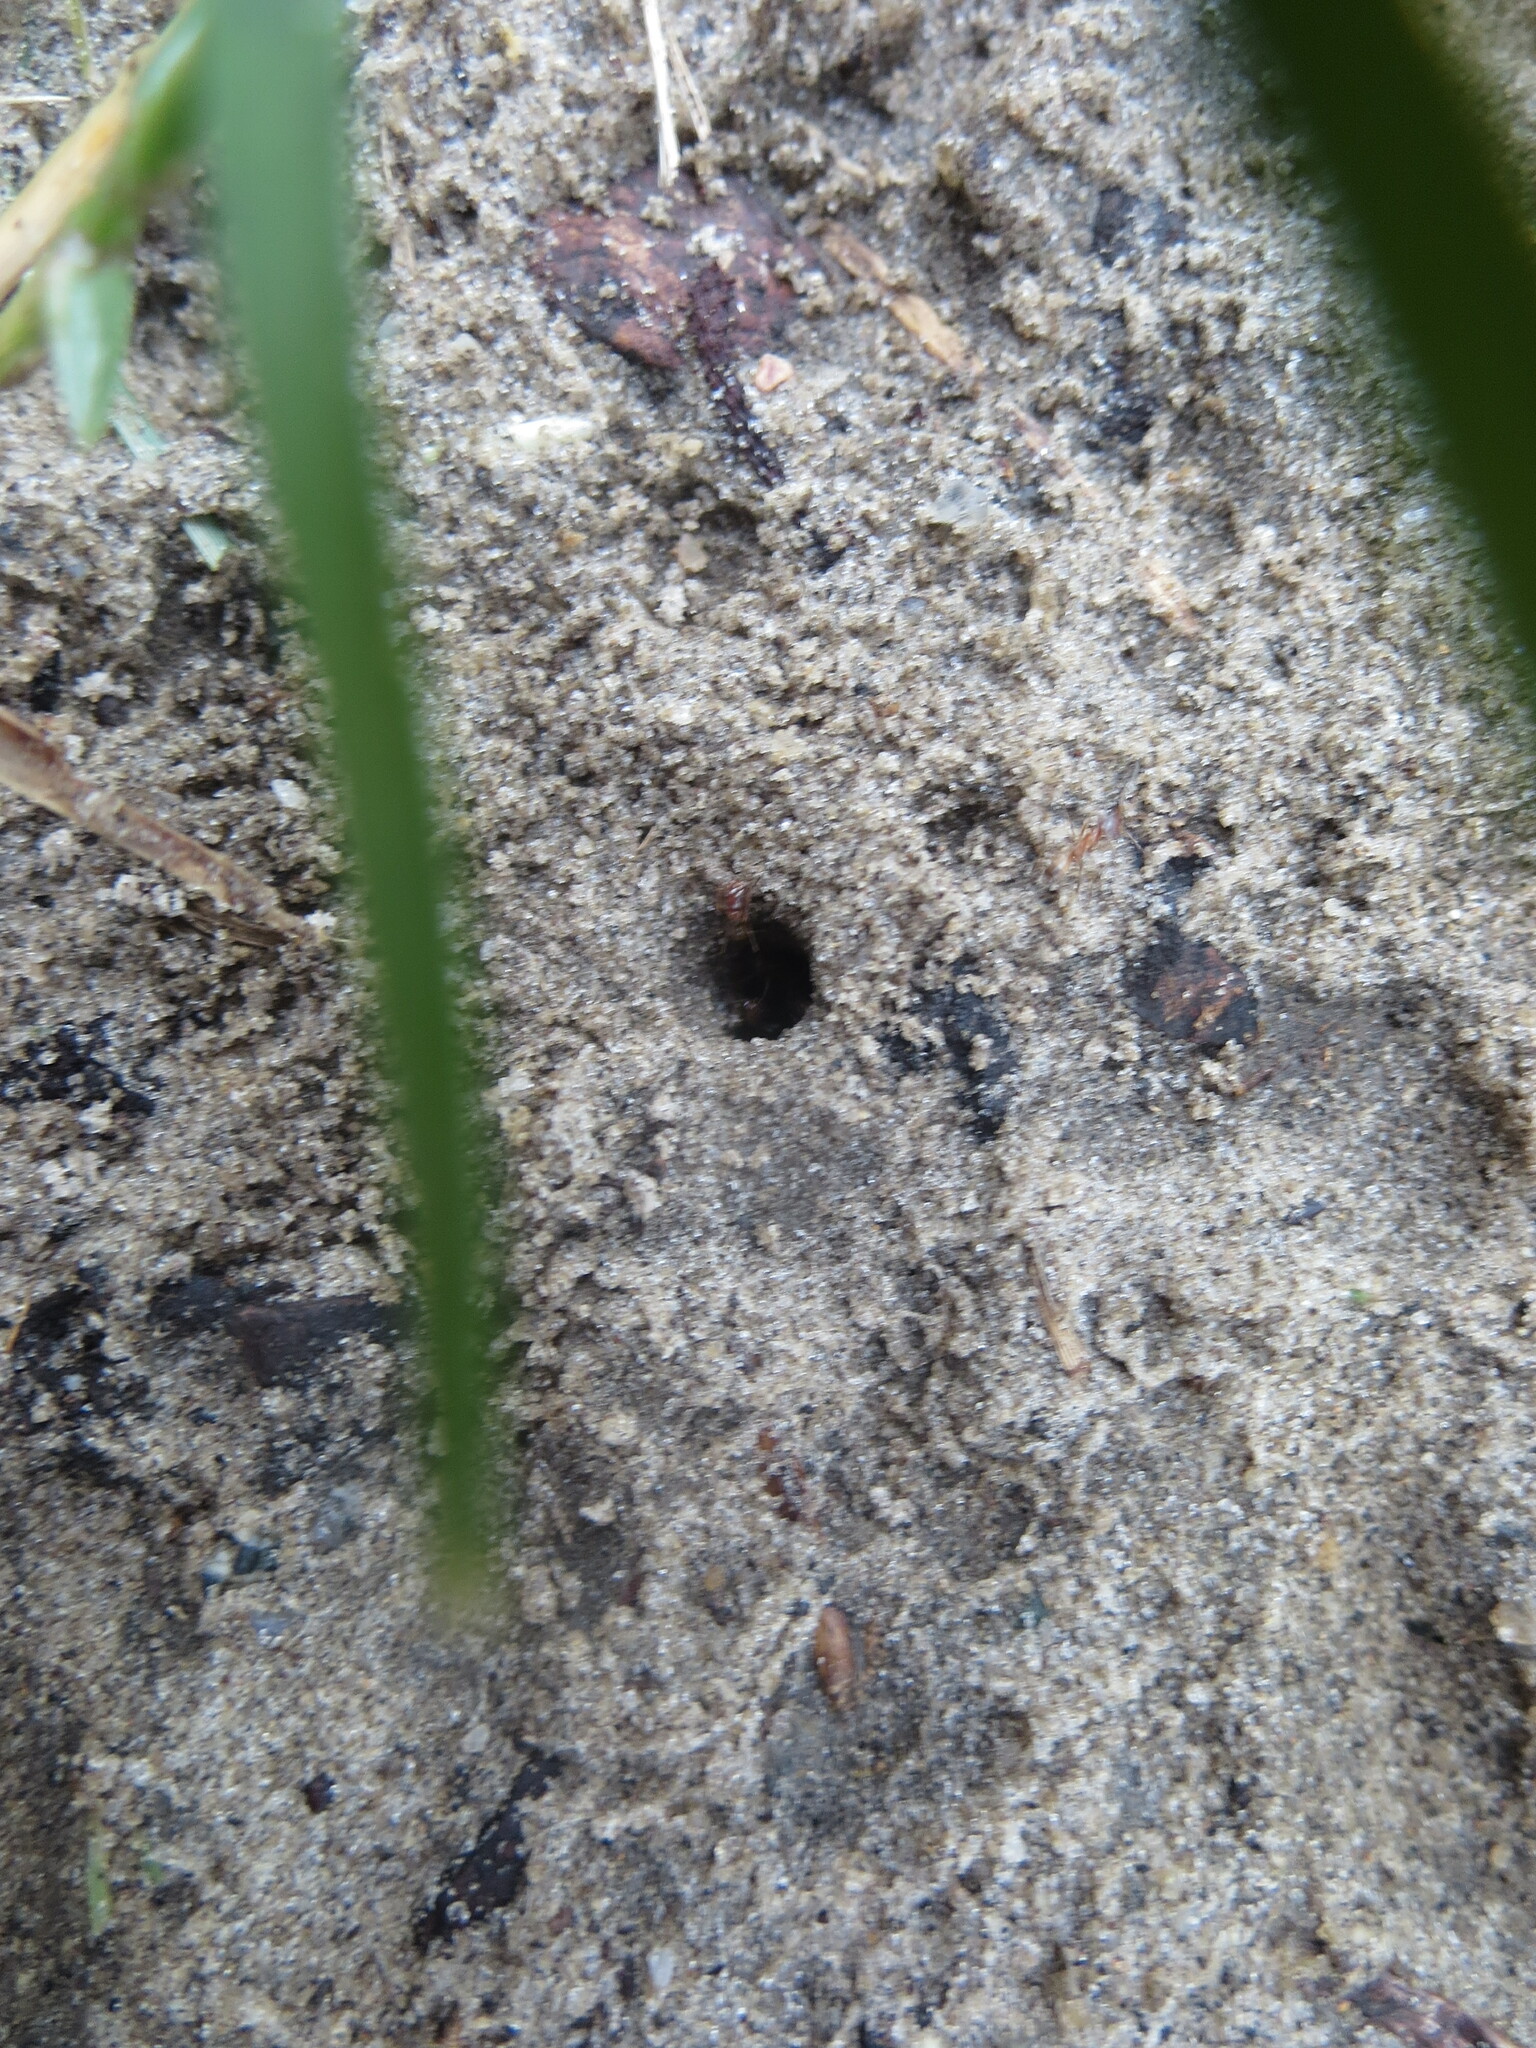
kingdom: Animalia
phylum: Arthropoda
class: Insecta
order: Hymenoptera
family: Formicidae
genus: Dorymyrmex
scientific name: Dorymyrmex bureni
